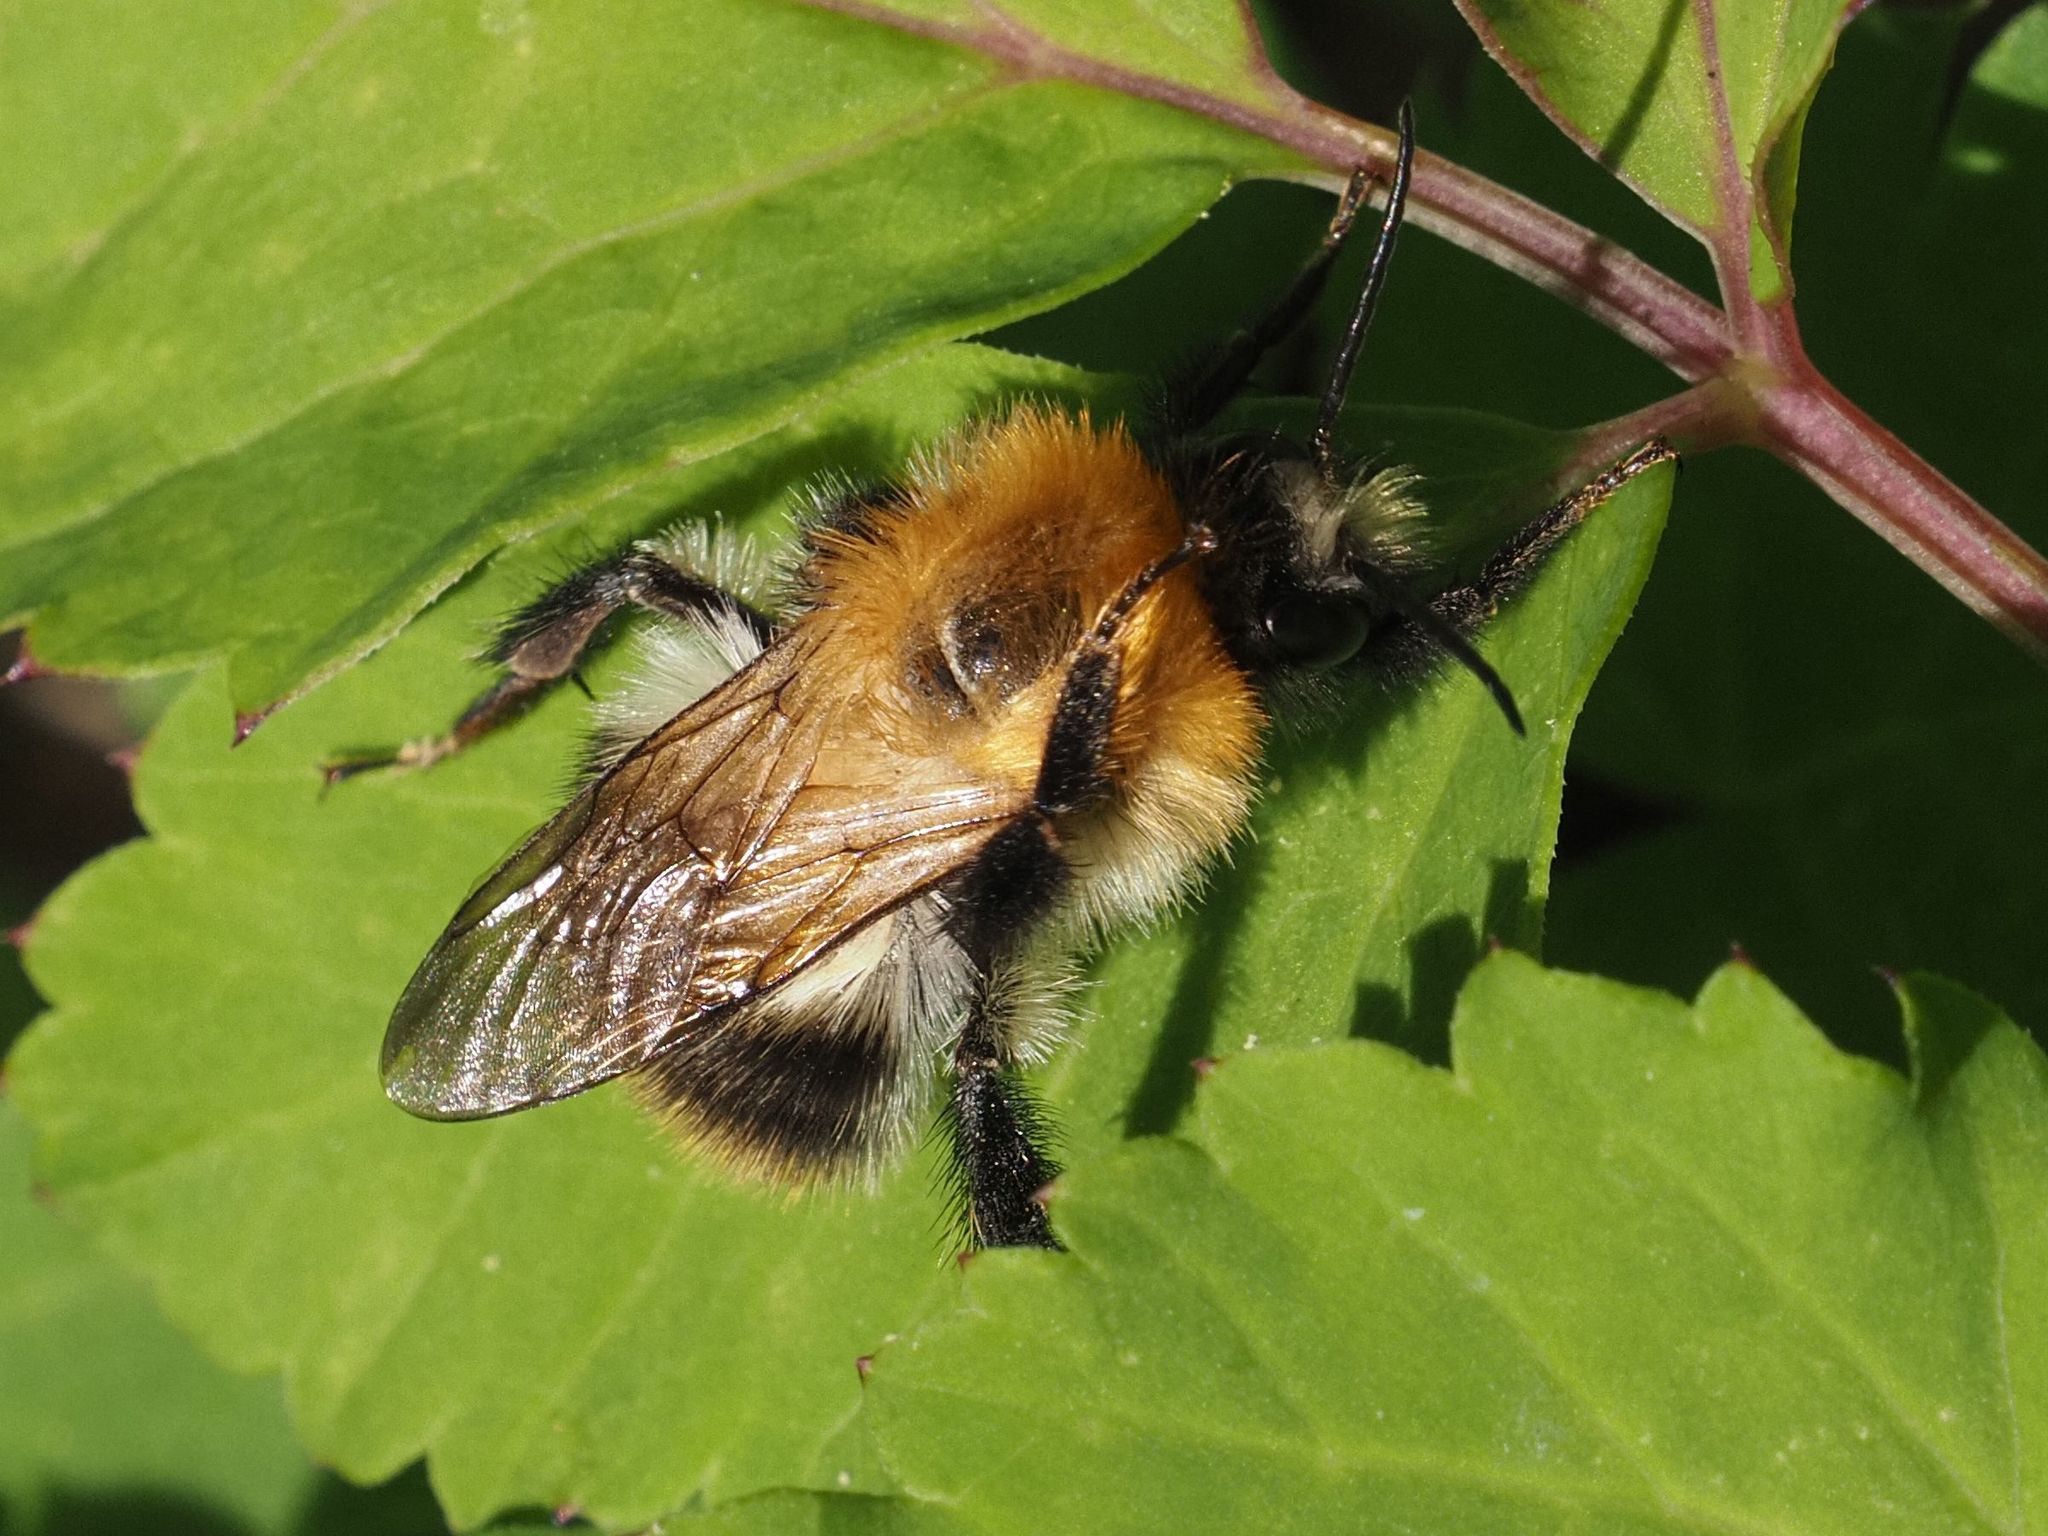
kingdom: Animalia
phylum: Arthropoda
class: Insecta
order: Hymenoptera
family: Apidae
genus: Bombus
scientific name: Bombus pascuorum
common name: Common carder bee
